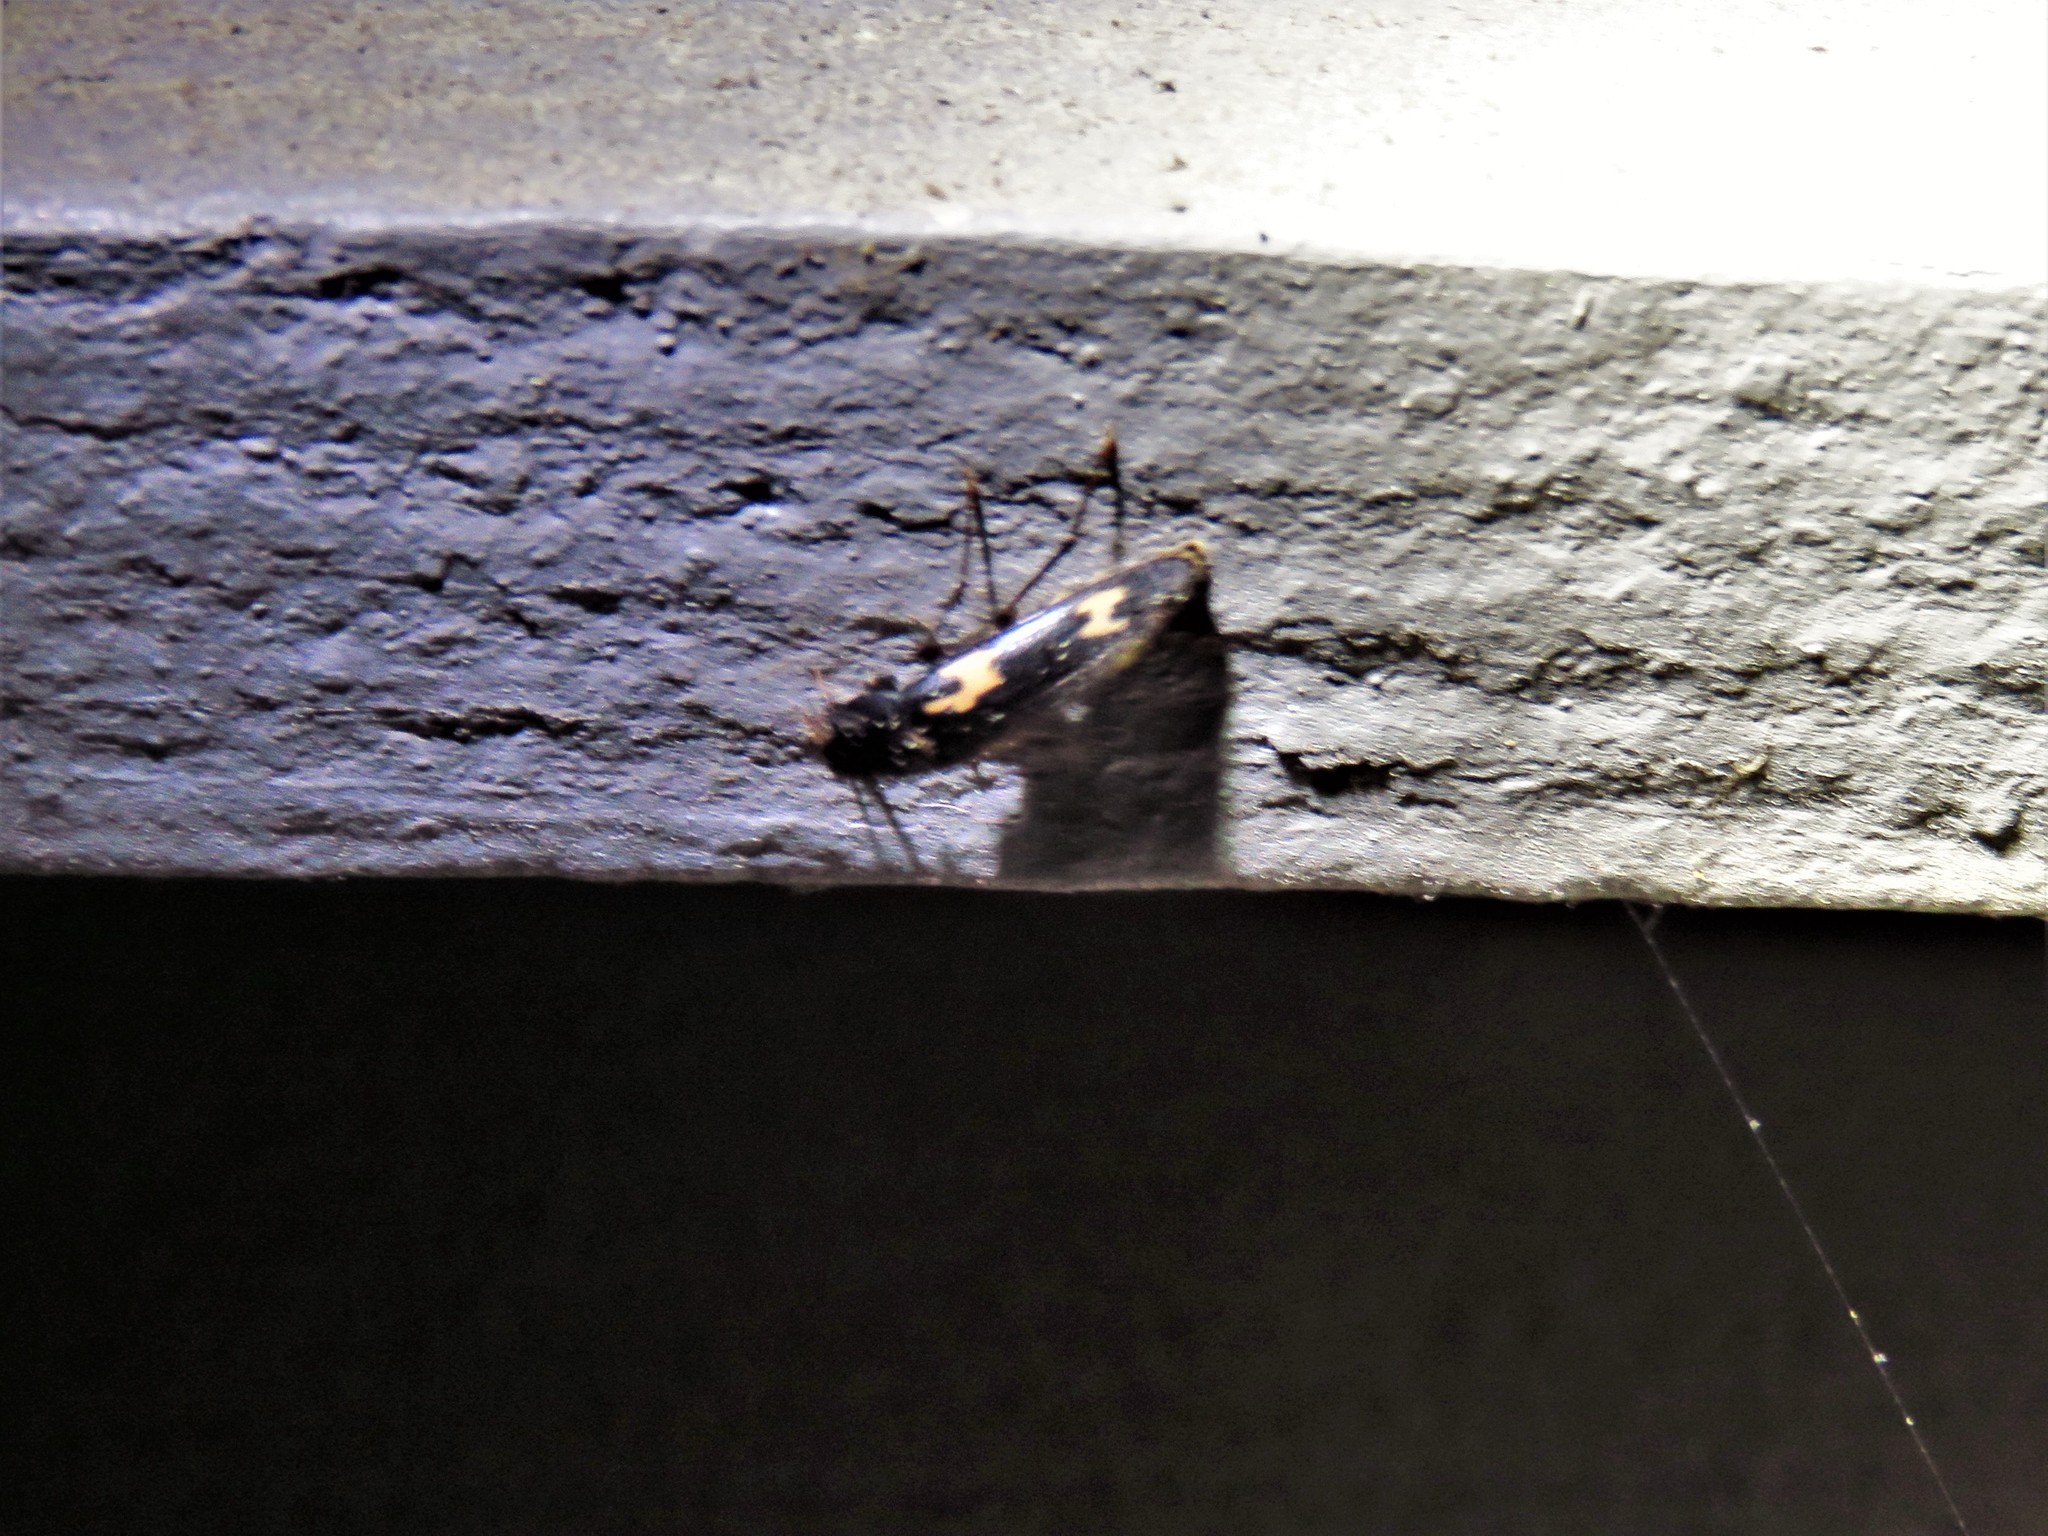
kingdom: Animalia
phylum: Arthropoda
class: Insecta
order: Coleoptera
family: Melandryidae
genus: Dircaea
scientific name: Dircaea liturata
